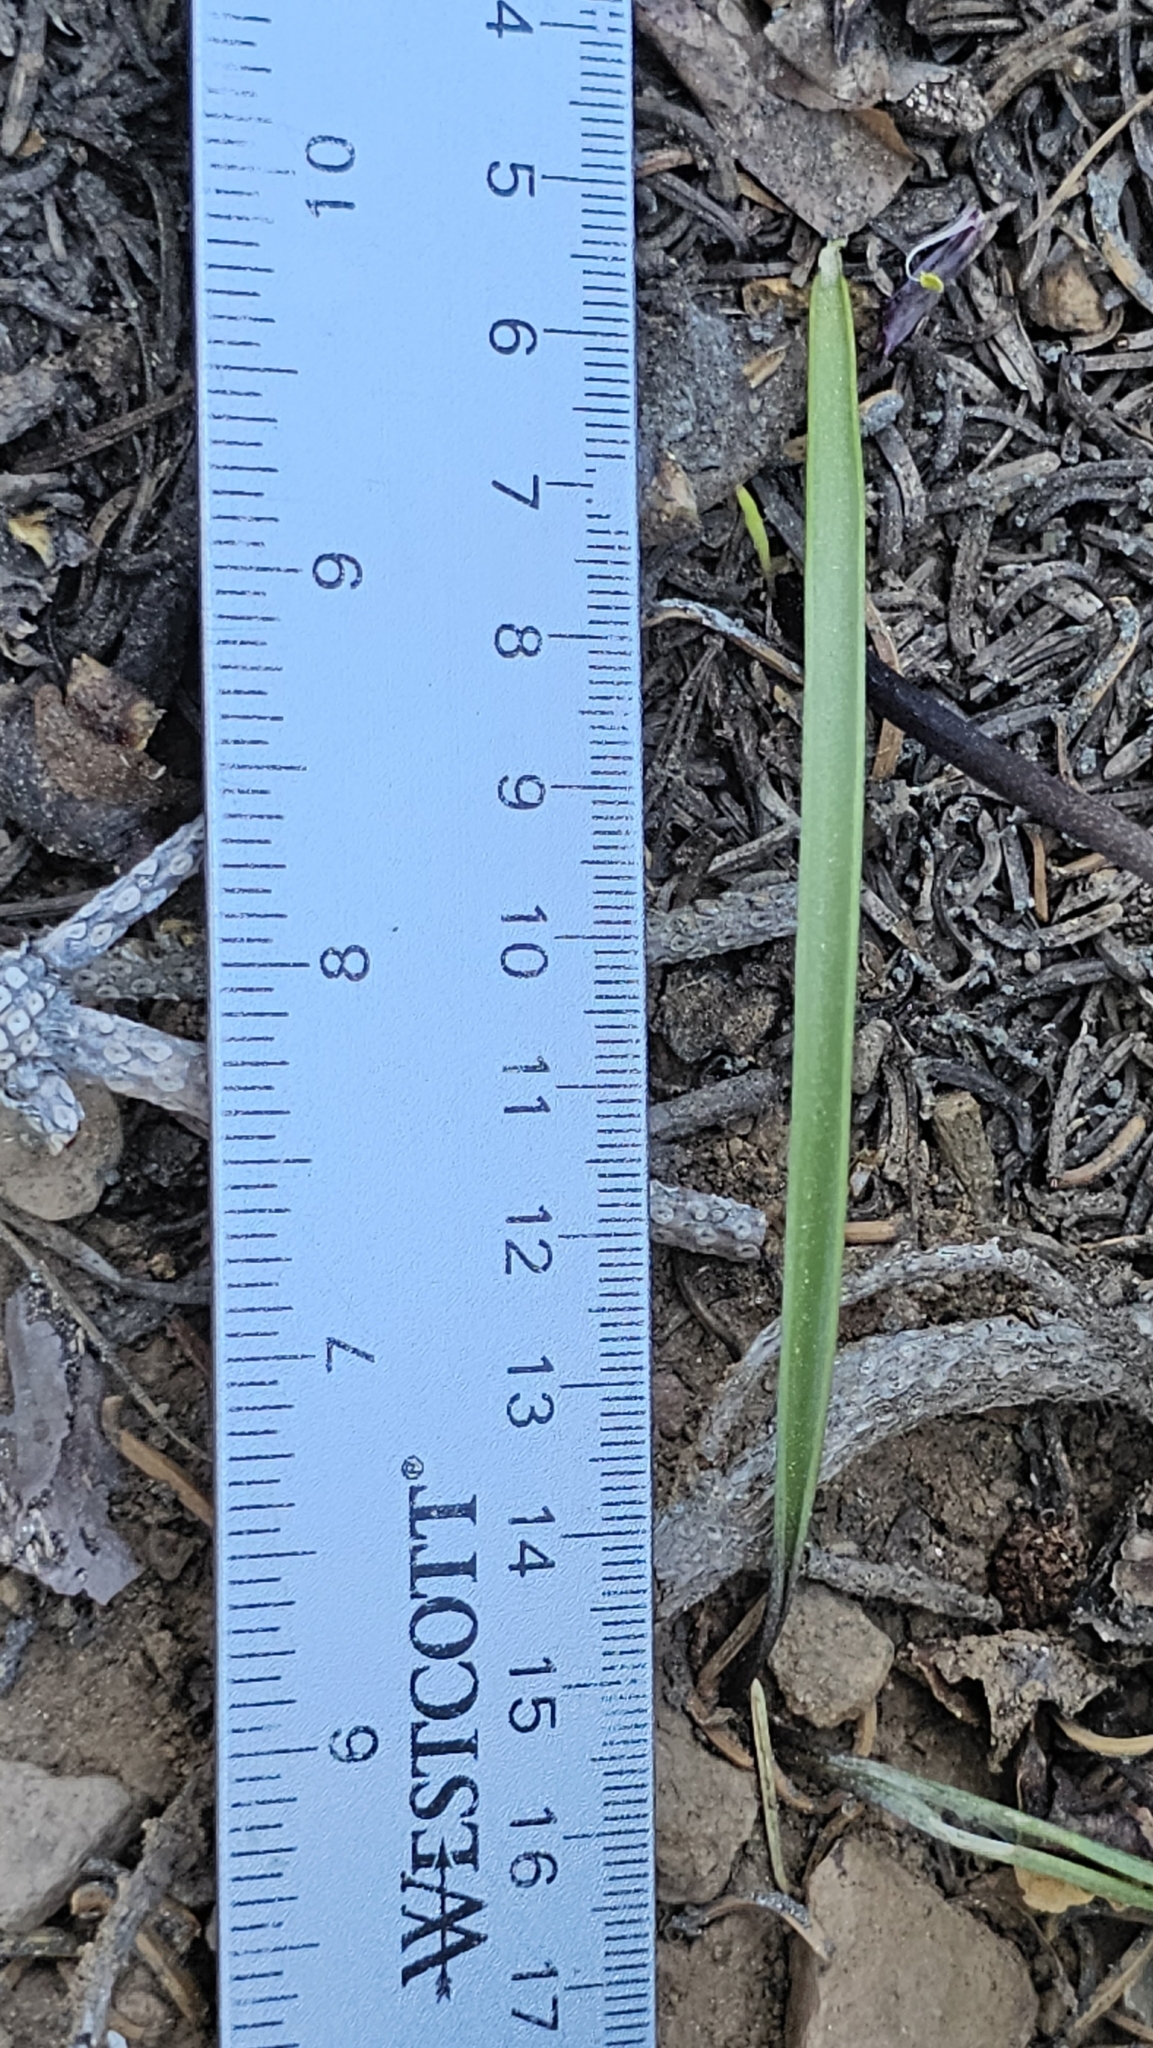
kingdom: Plantae
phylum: Tracheophyta
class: Liliopsida
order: Liliales
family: Liliaceae
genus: Fritillaria
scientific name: Fritillaria pinetorum
